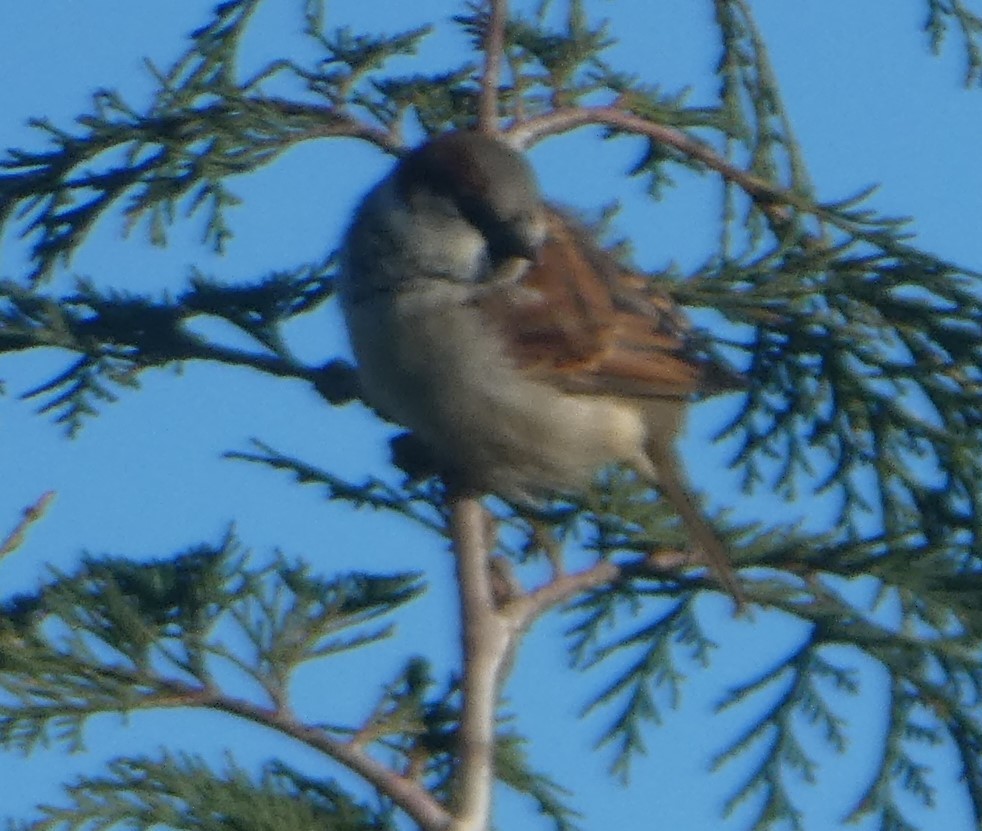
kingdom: Animalia
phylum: Chordata
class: Aves
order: Passeriformes
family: Passeridae
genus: Passer
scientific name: Passer domesticus
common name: House sparrow
